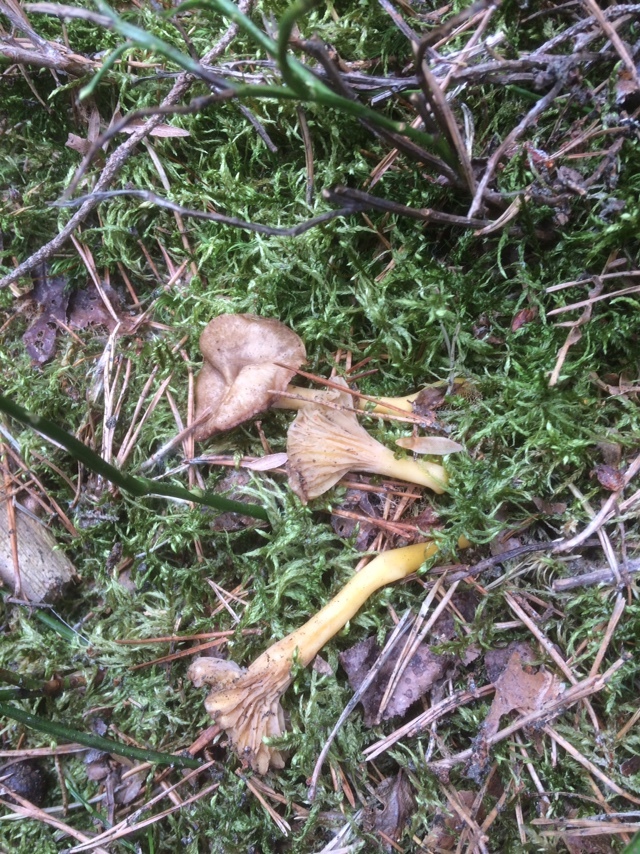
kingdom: Fungi
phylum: Basidiomycota
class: Agaricomycetes
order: Cantharellales
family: Hydnaceae
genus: Craterellus
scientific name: Craterellus tubaeformis
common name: Yellowfoot
